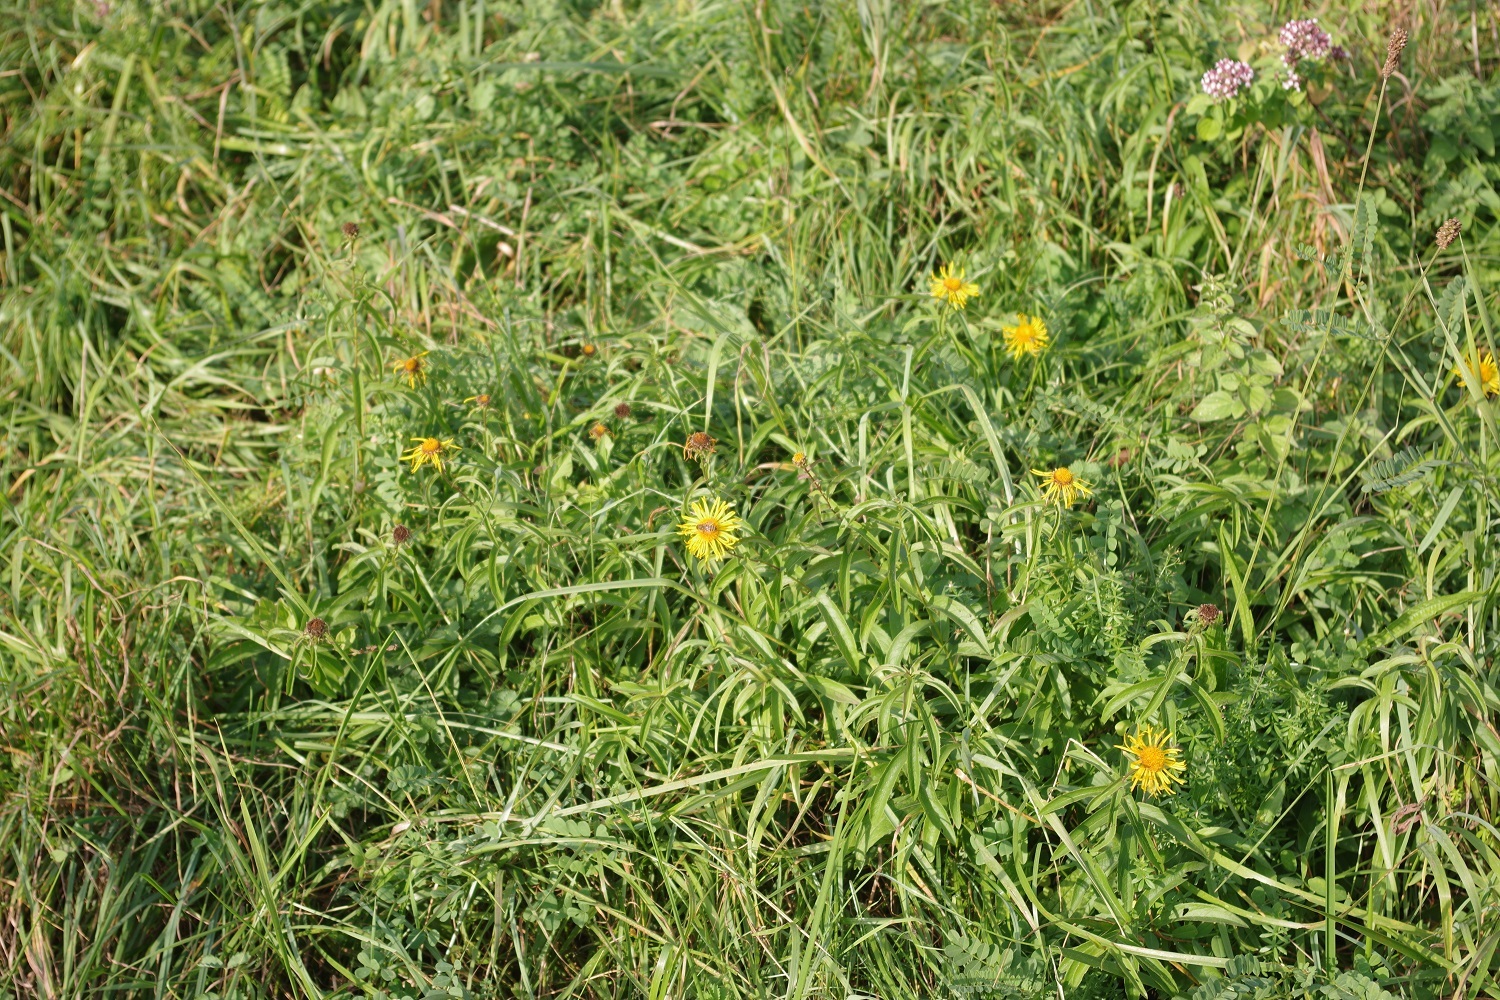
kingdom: Plantae
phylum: Tracheophyta
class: Magnoliopsida
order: Asterales
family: Asteraceae
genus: Pentanema
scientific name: Pentanema salicinum
